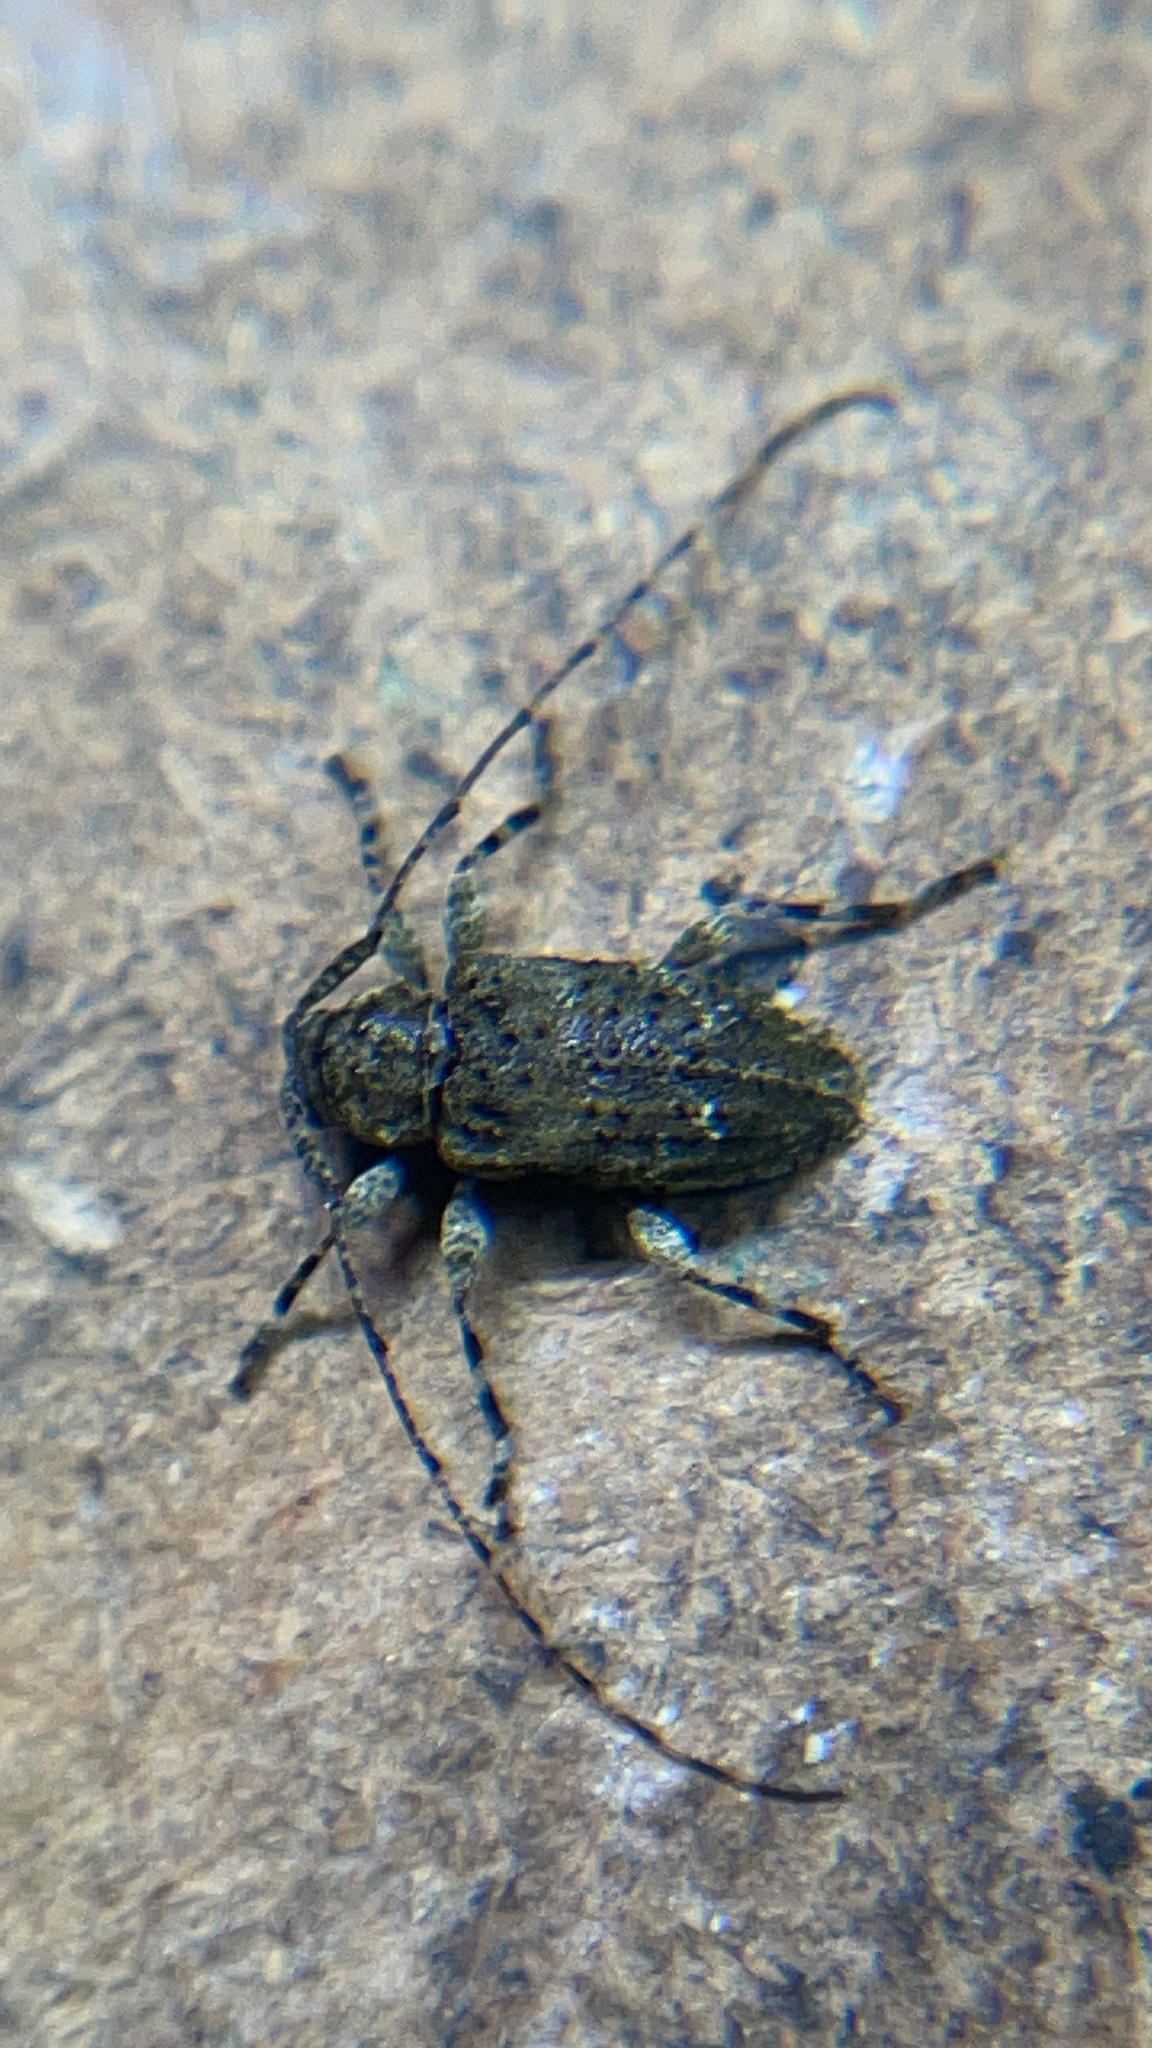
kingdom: Animalia
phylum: Arthropoda
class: Insecta
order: Coleoptera
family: Cerambycidae
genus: Astylidius
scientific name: Astylidius parvus
